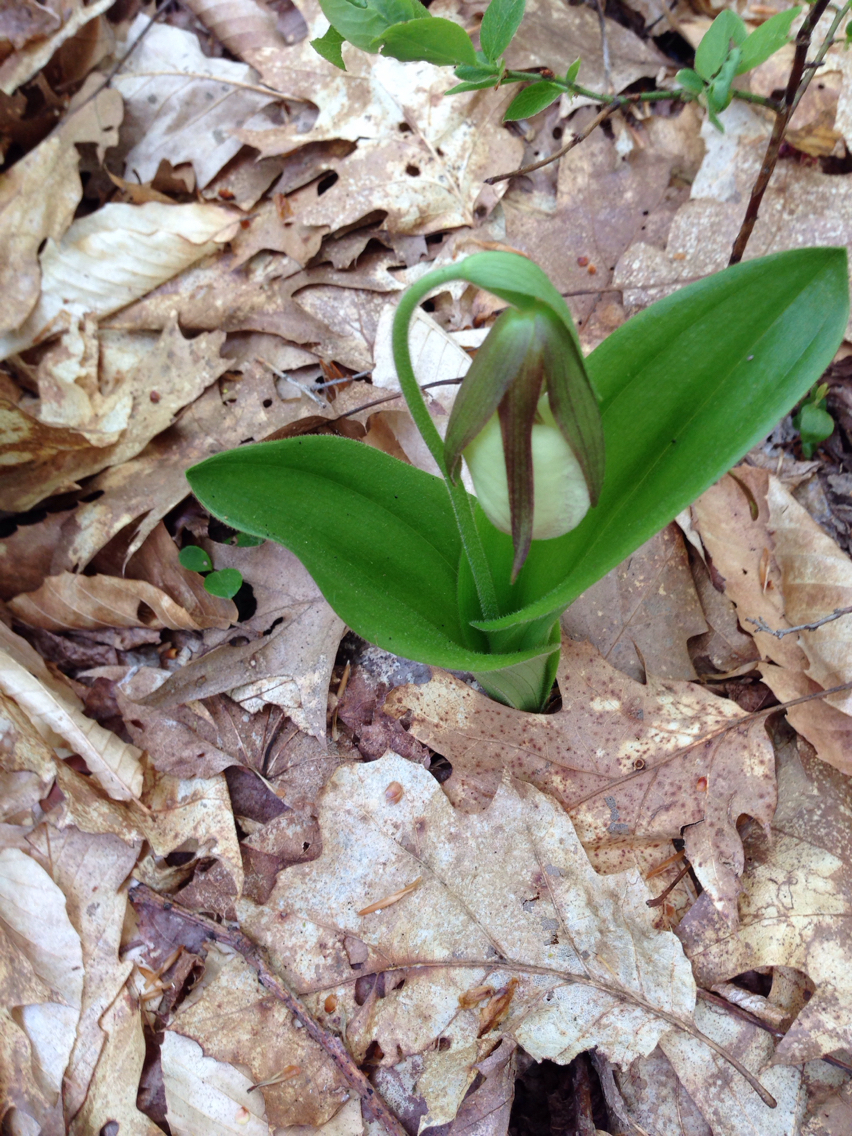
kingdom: Plantae
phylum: Tracheophyta
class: Liliopsida
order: Asparagales
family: Orchidaceae
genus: Cypripedium
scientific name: Cypripedium acaule
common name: Pink lady's-slipper
